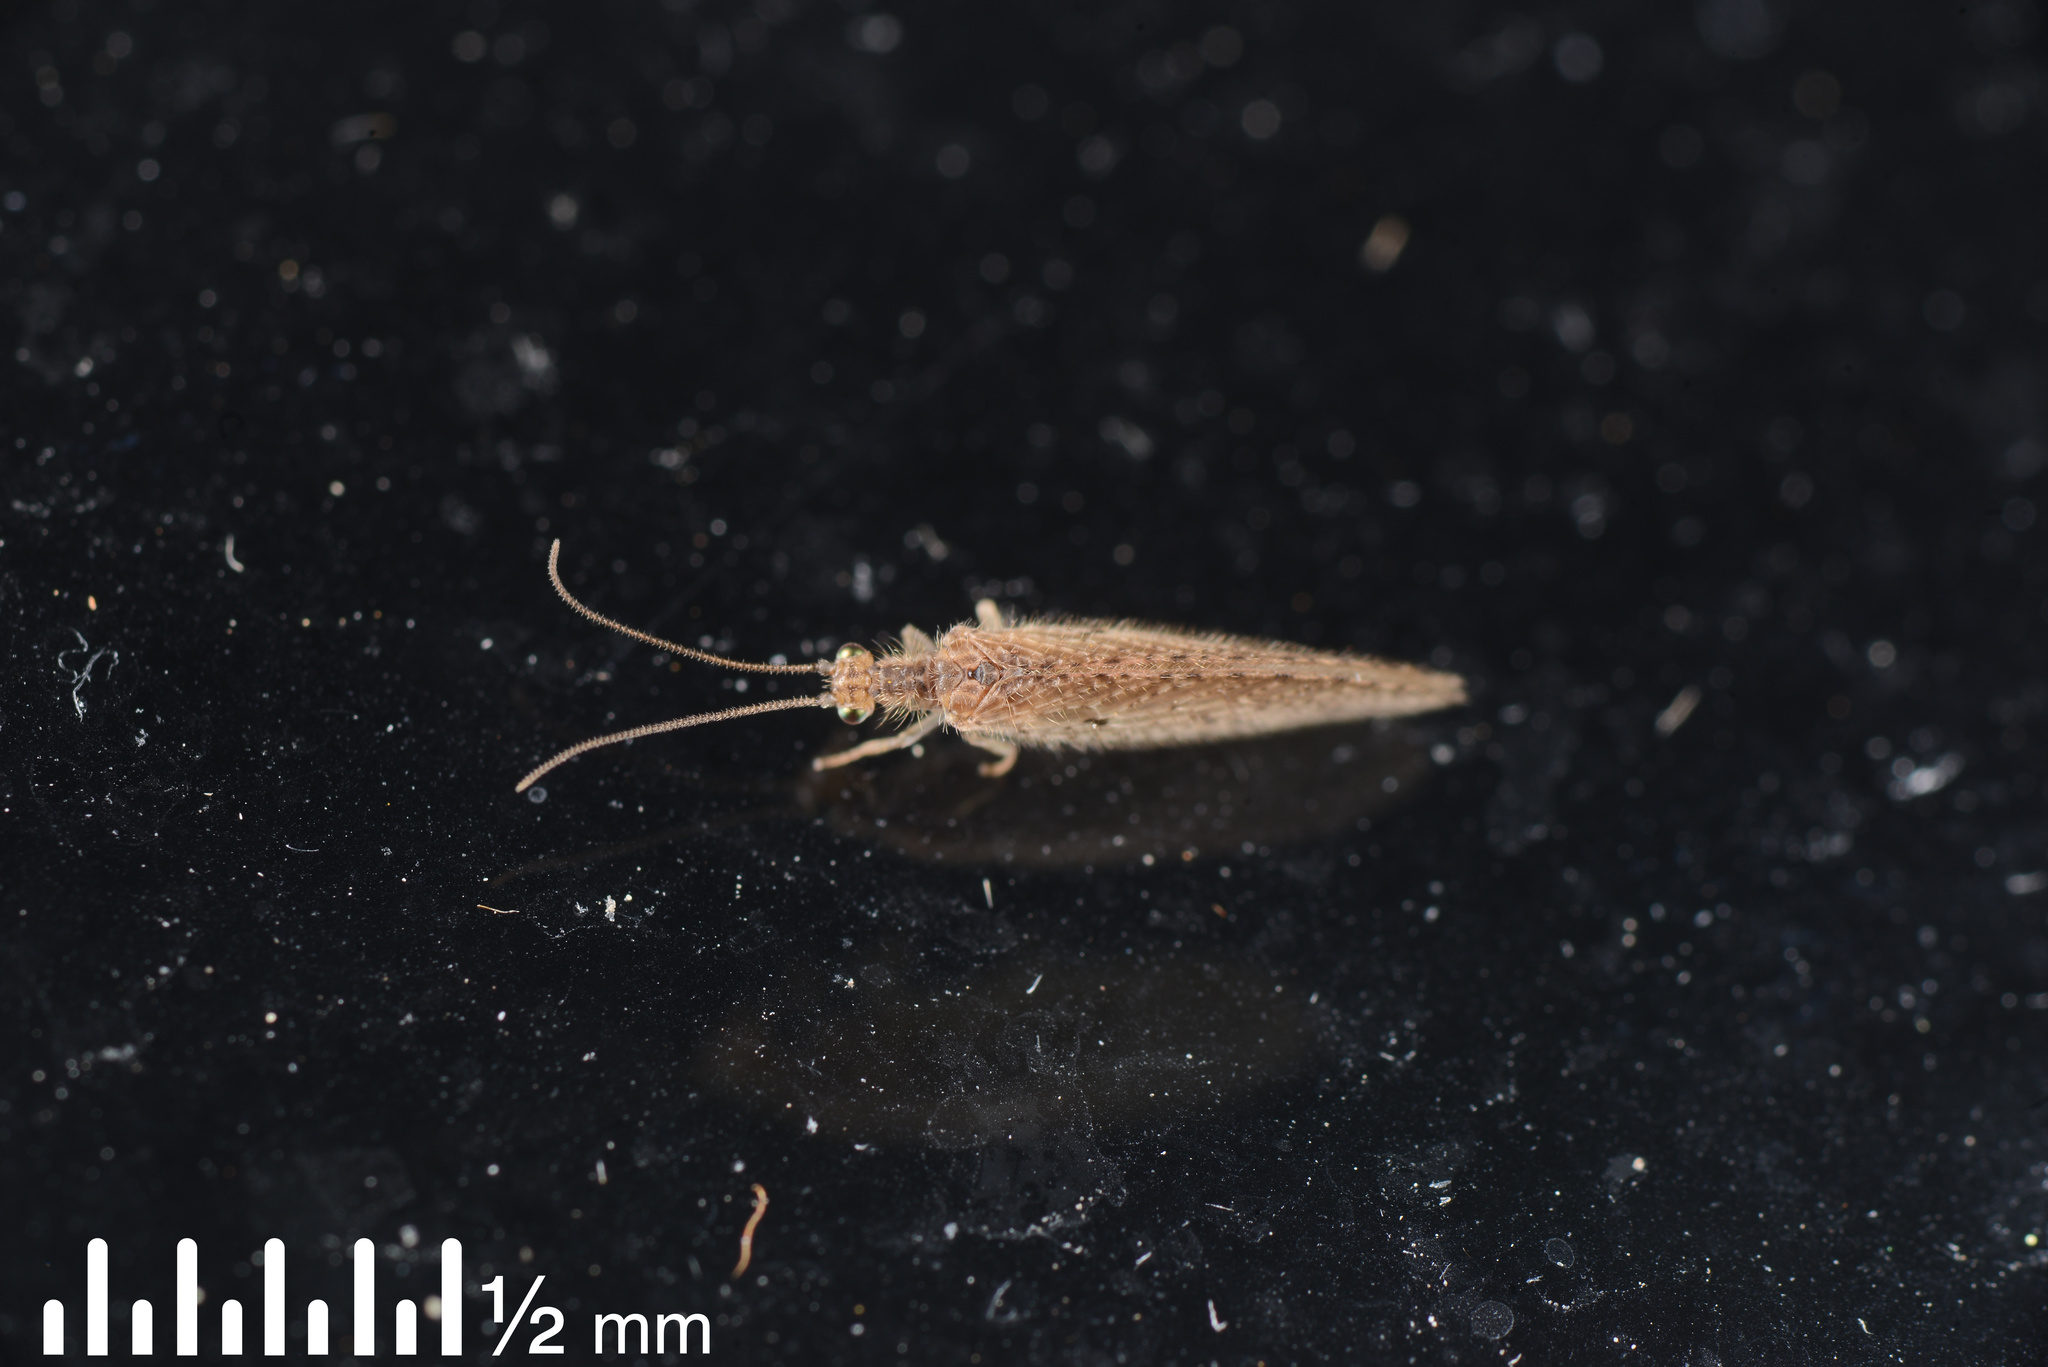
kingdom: Animalia
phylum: Arthropoda
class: Insecta
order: Neuroptera
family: Hemerobiidae
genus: Micromus
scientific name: Micromus tasmaniae
